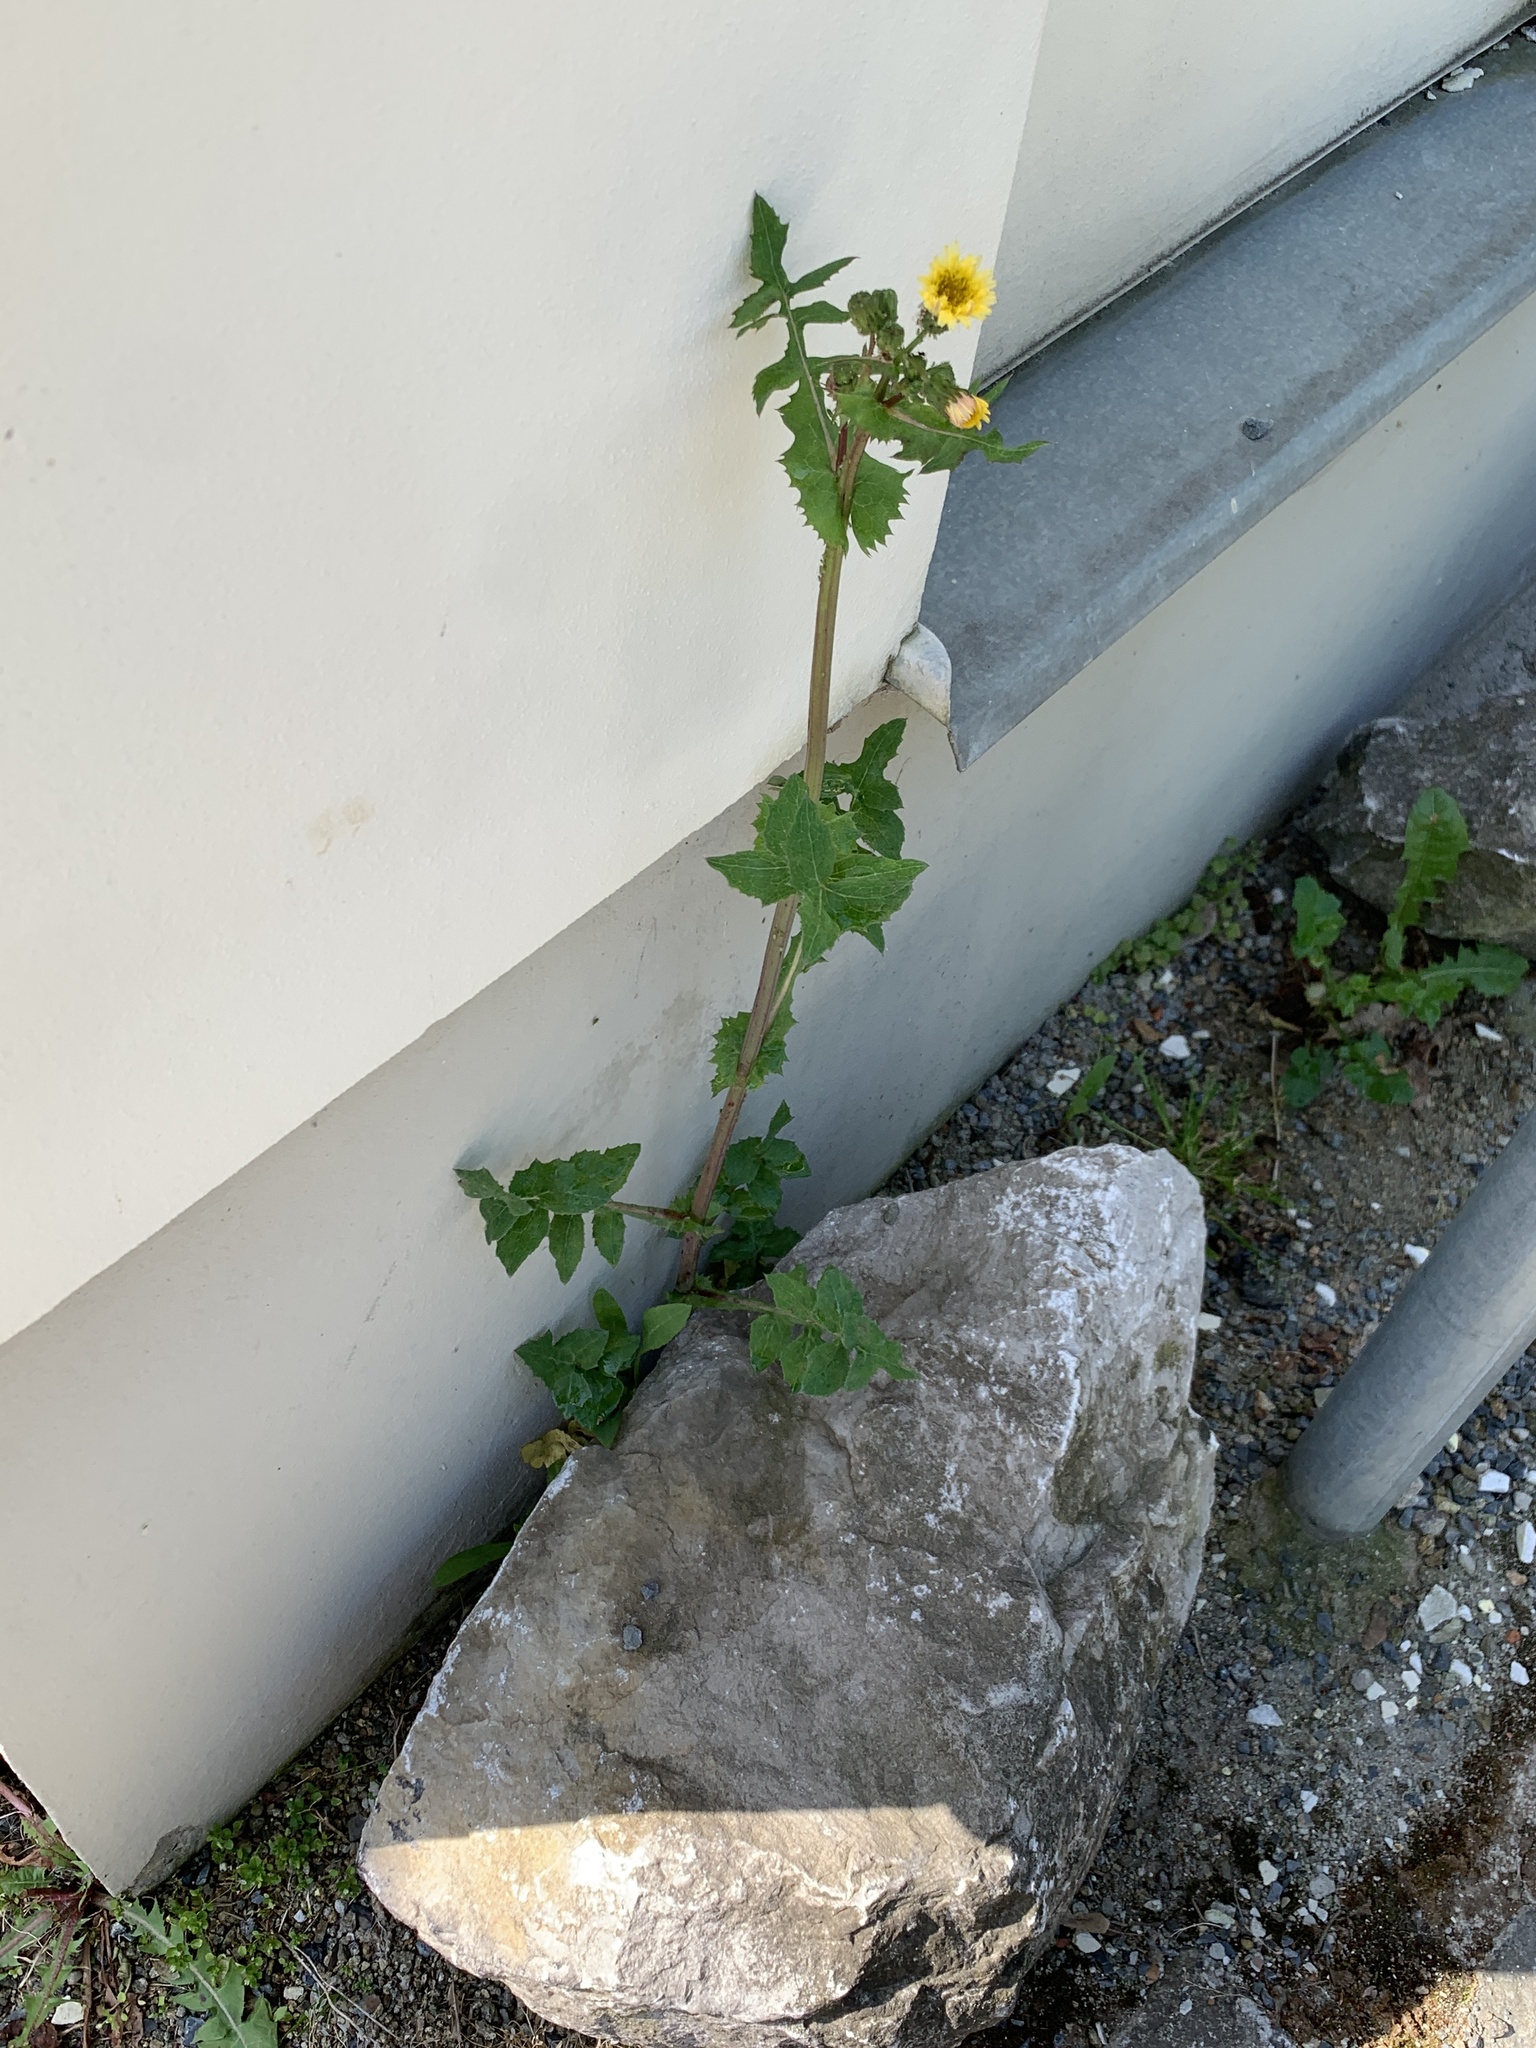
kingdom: Plantae
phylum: Tracheophyta
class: Magnoliopsida
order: Asterales
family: Asteraceae
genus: Sonchus
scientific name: Sonchus oleraceus
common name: Common sowthistle
